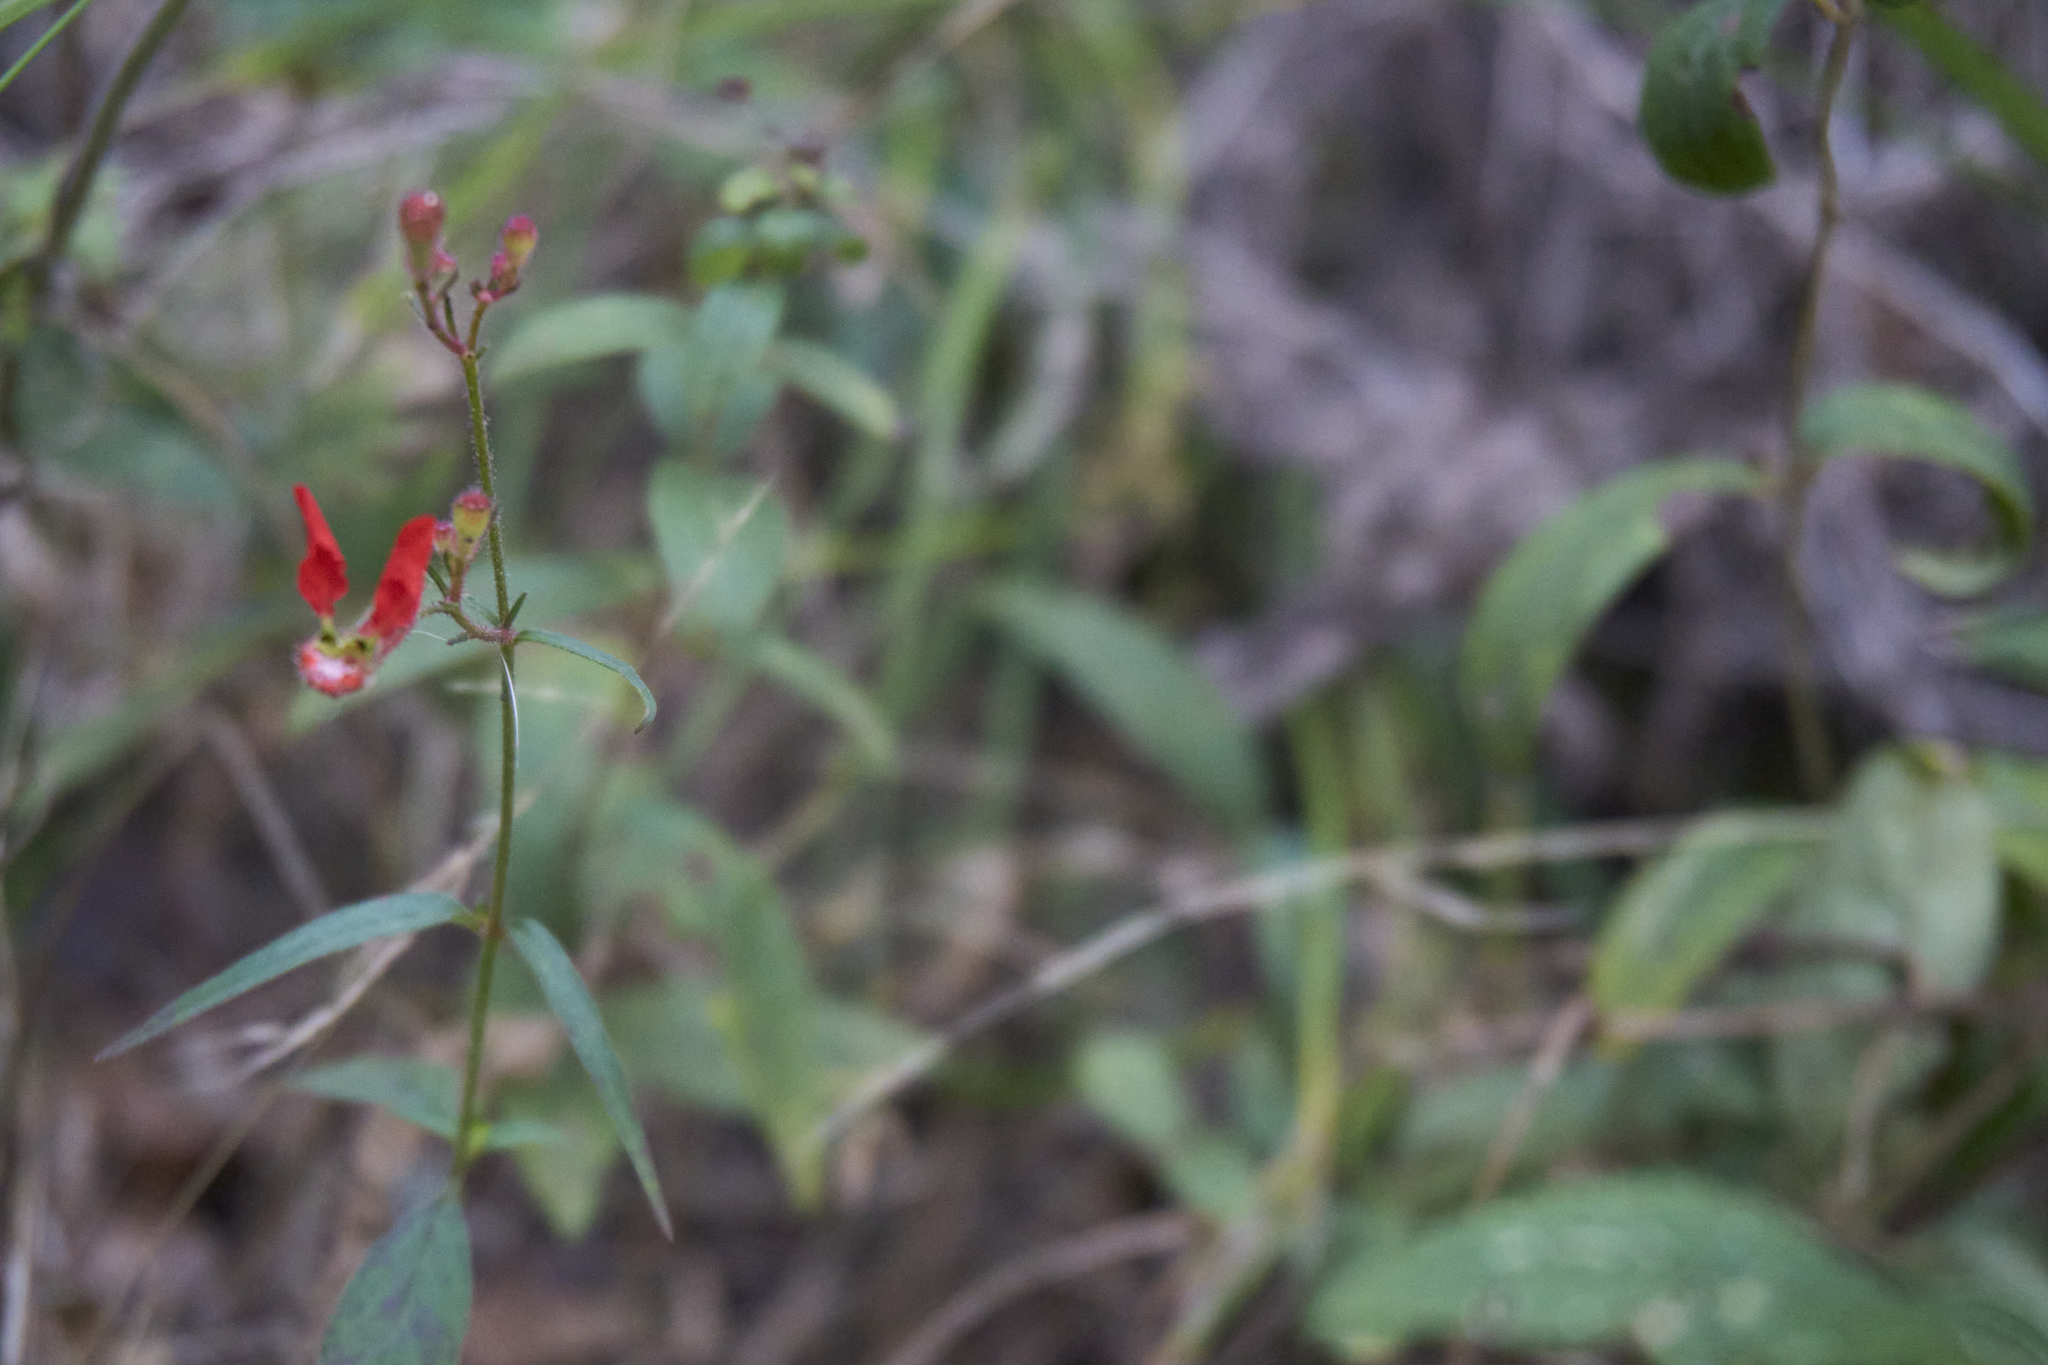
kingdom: Plantae
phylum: Tracheophyta
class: Magnoliopsida
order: Myrtales
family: Lythraceae
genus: Cuphea
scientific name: Cuphea hookeriana
